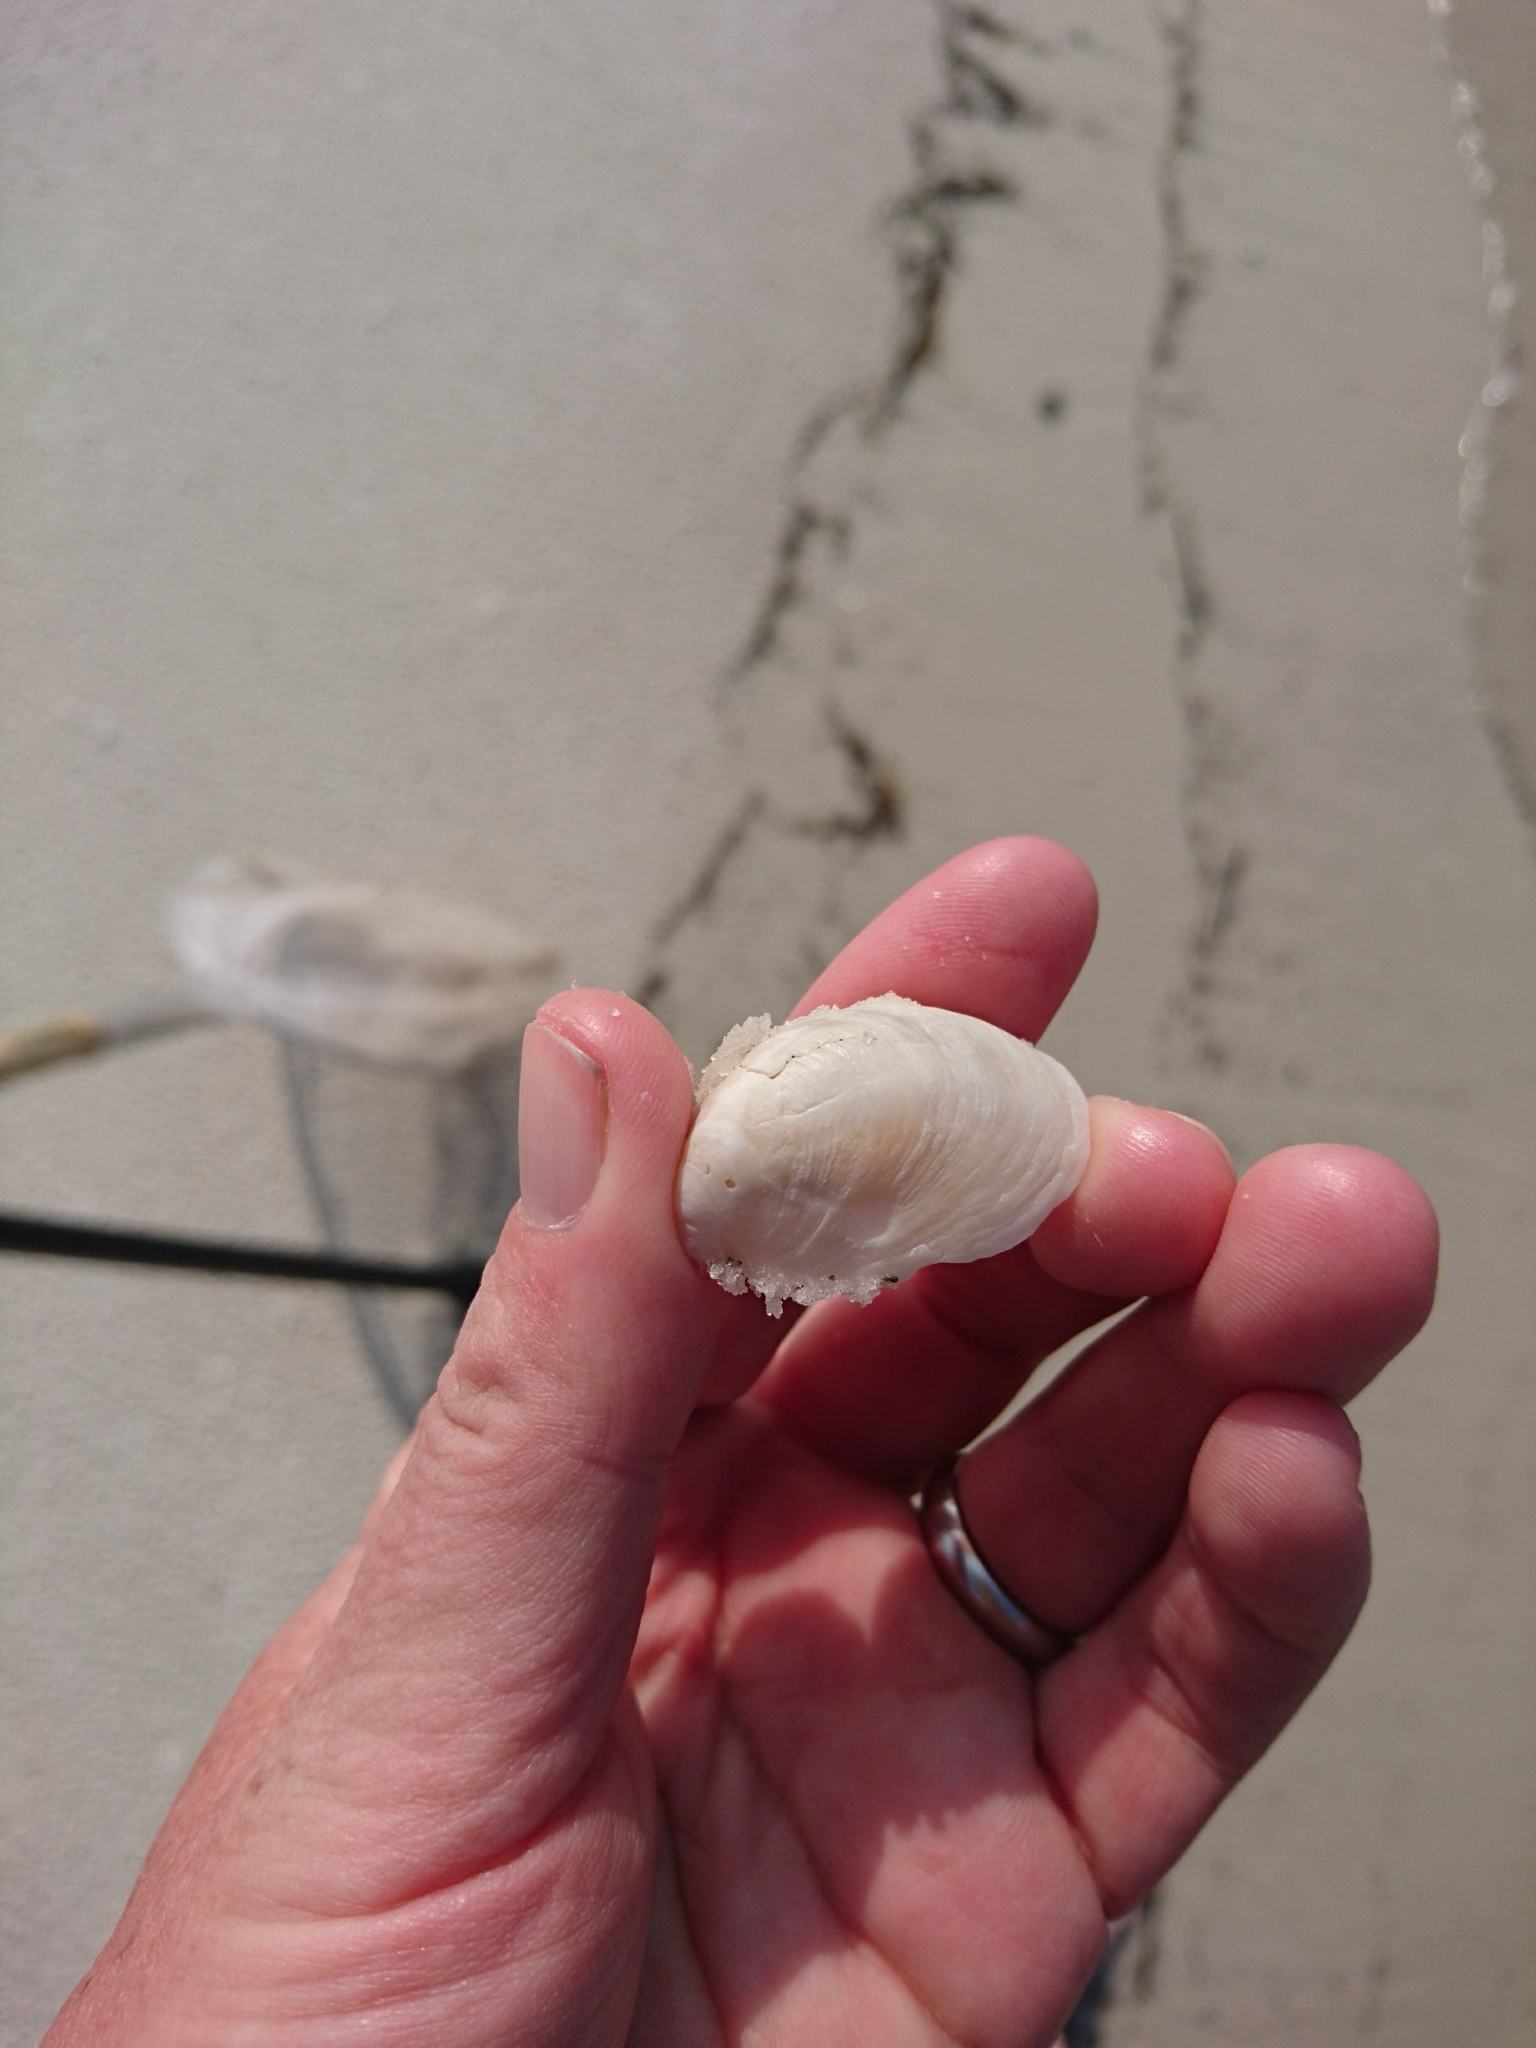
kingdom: Animalia
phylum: Mollusca
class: Gastropoda
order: Littorinimorpha
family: Calyptraeidae
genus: Crepidula
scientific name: Crepidula fornicata
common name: Slipper limpet
